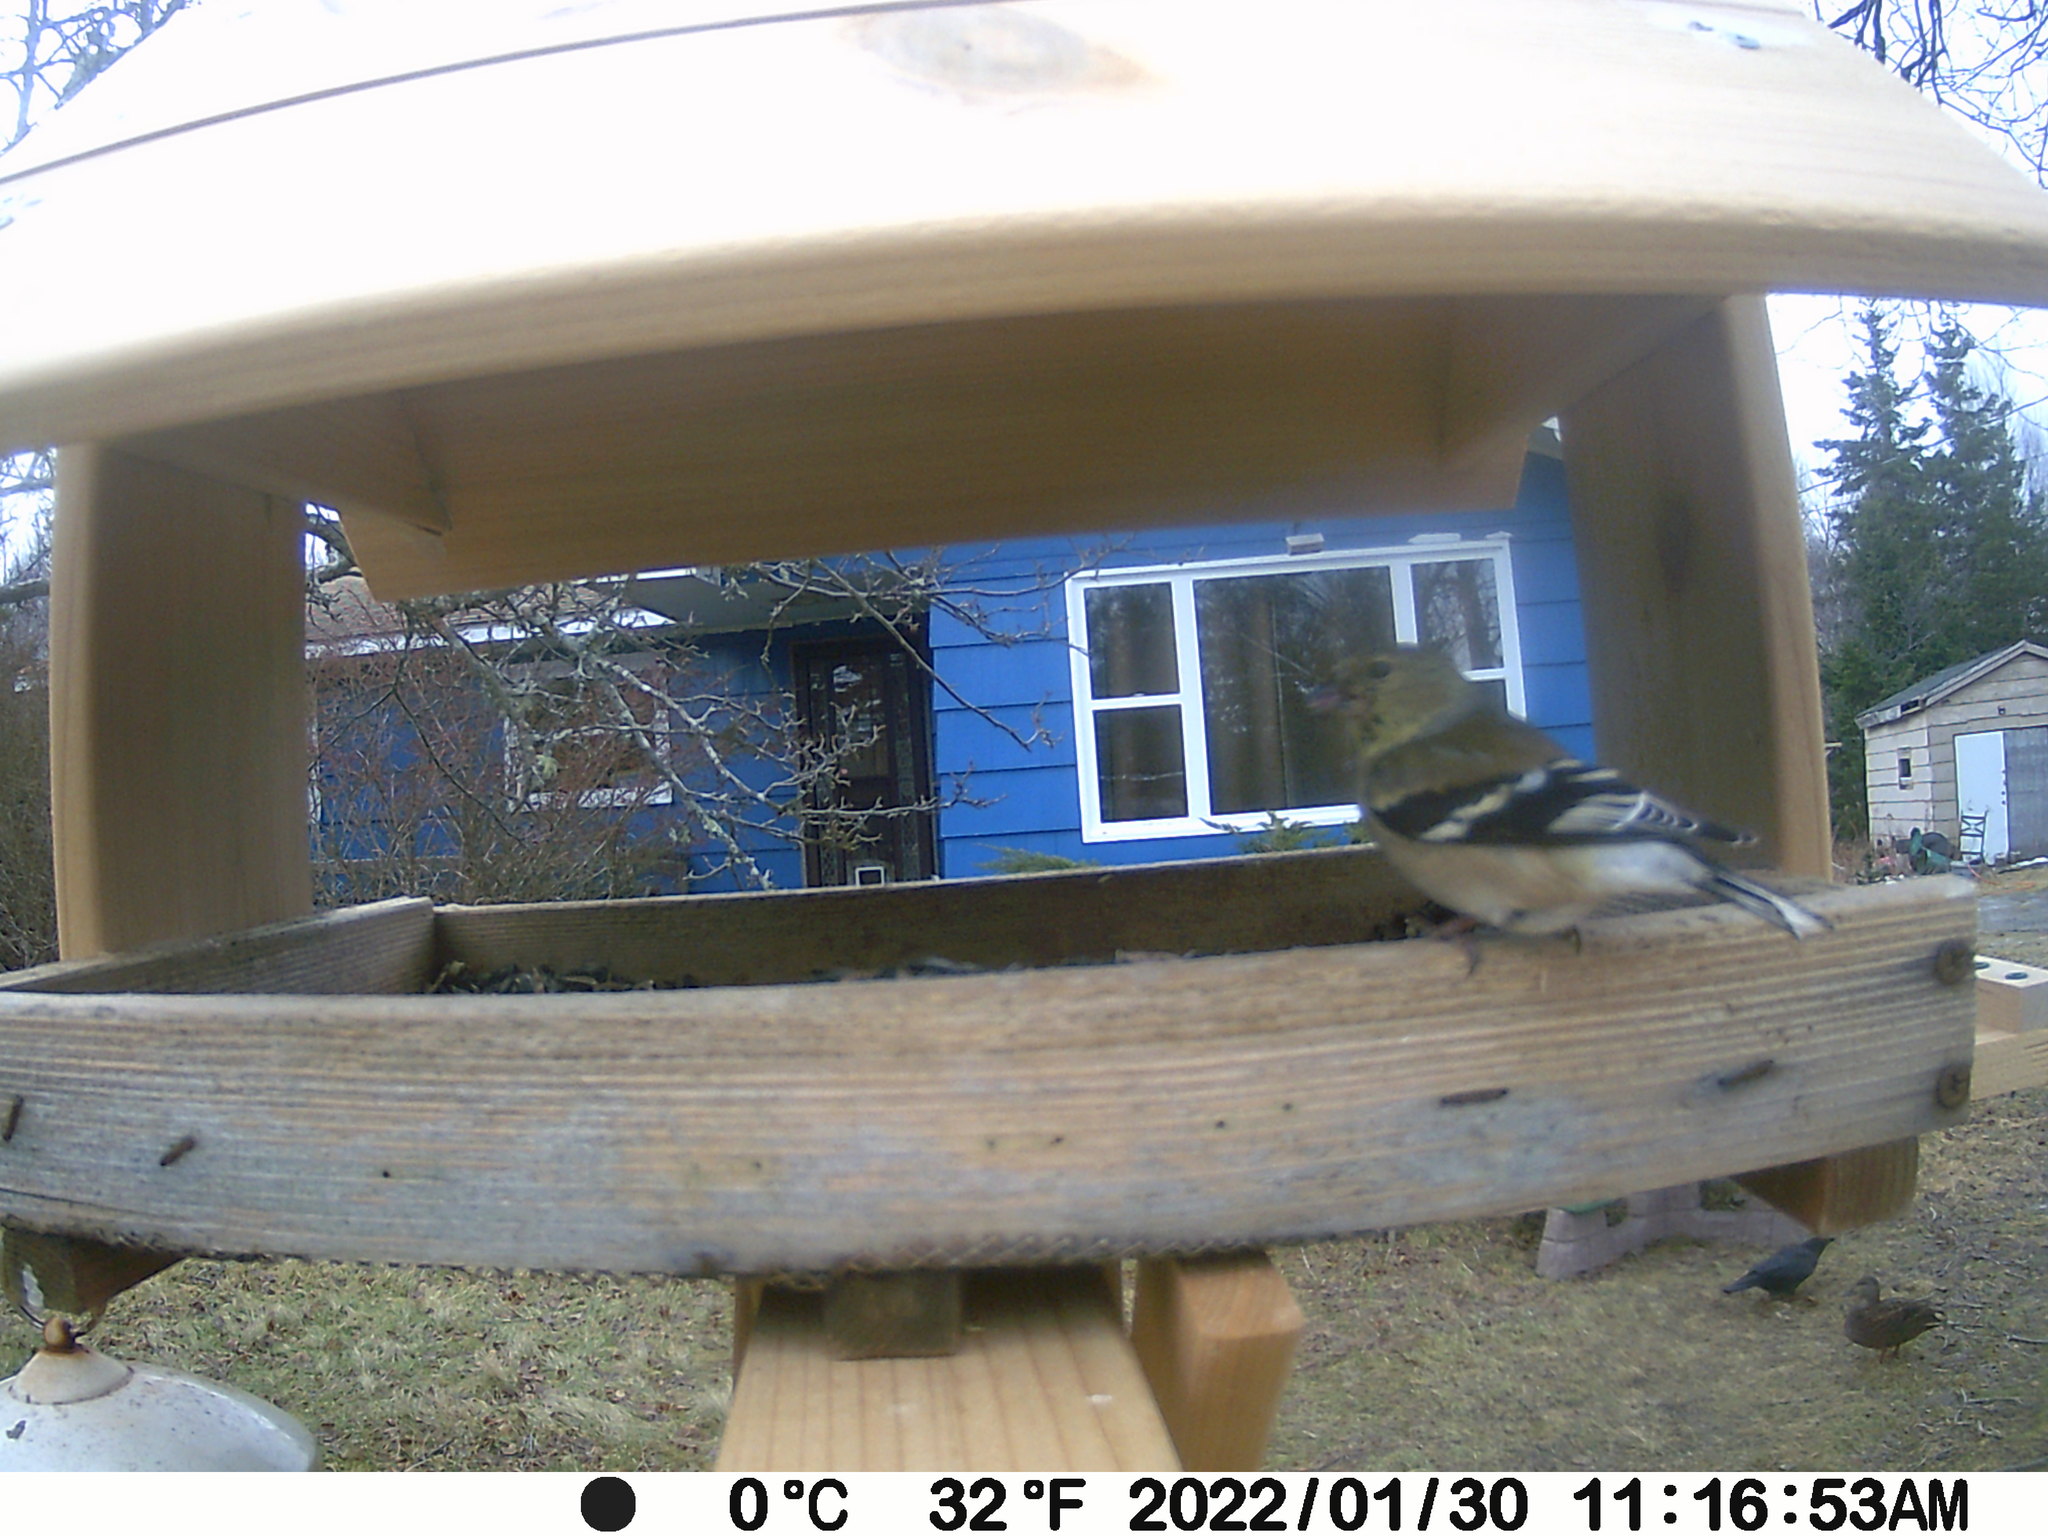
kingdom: Animalia
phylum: Chordata
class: Aves
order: Passeriformes
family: Fringillidae
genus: Spinus
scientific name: Spinus tristis
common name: American goldfinch
